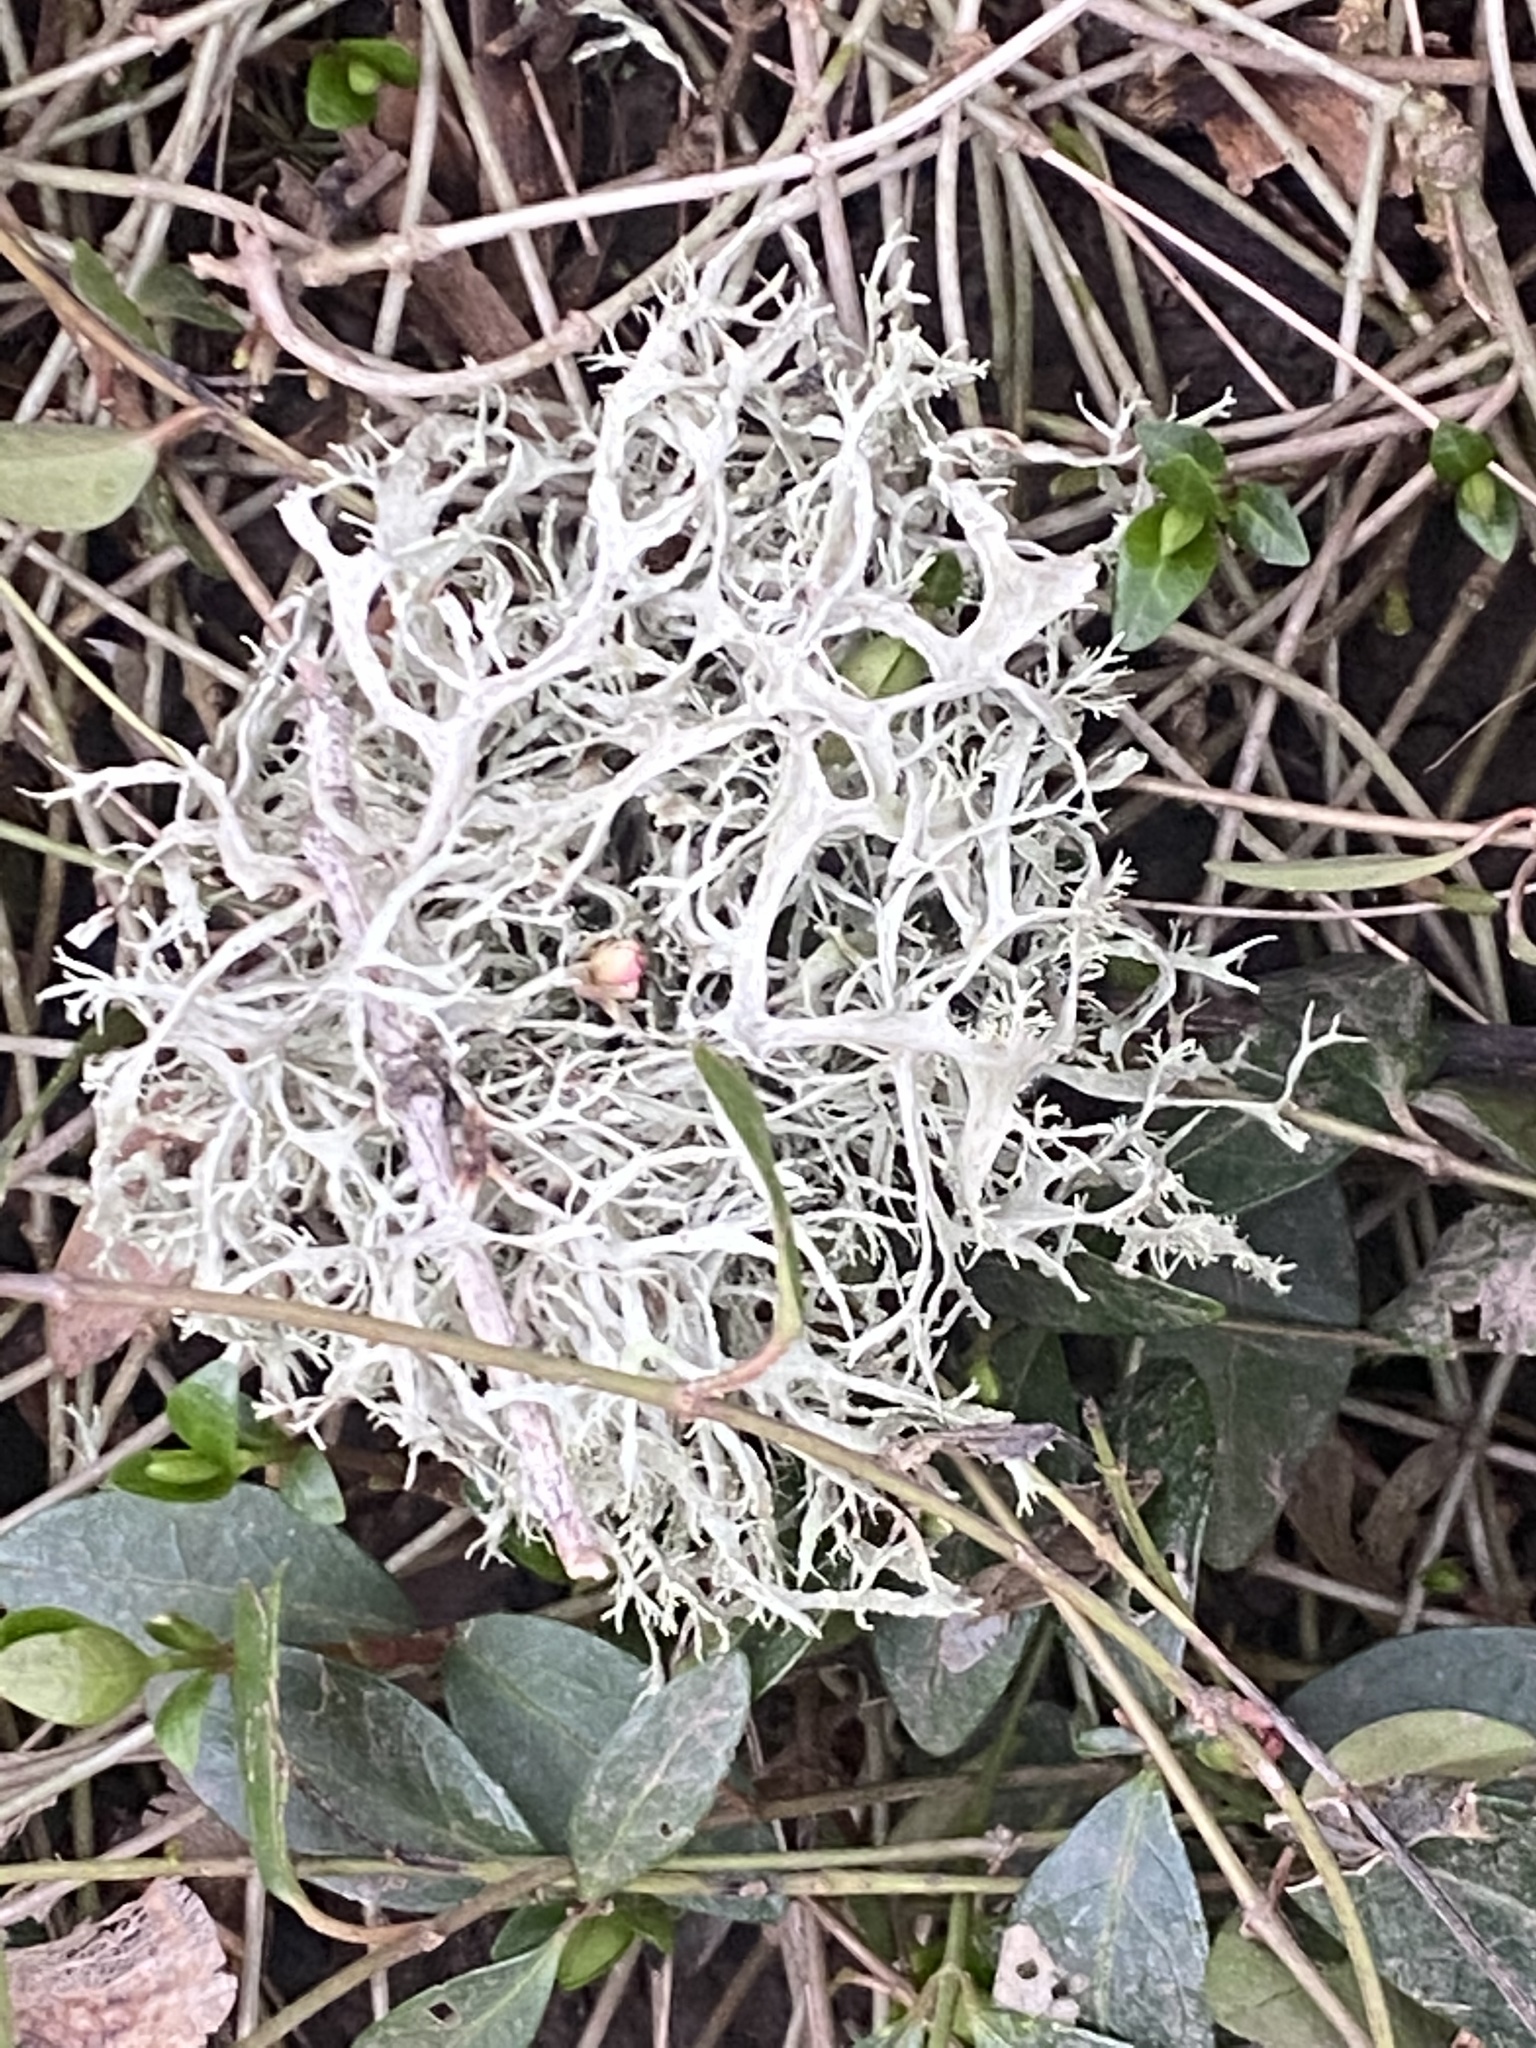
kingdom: Fungi
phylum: Ascomycota
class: Lecanoromycetes
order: Lecanorales
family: Parmeliaceae
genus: Evernia
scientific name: Evernia prunastri
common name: Oak moss
